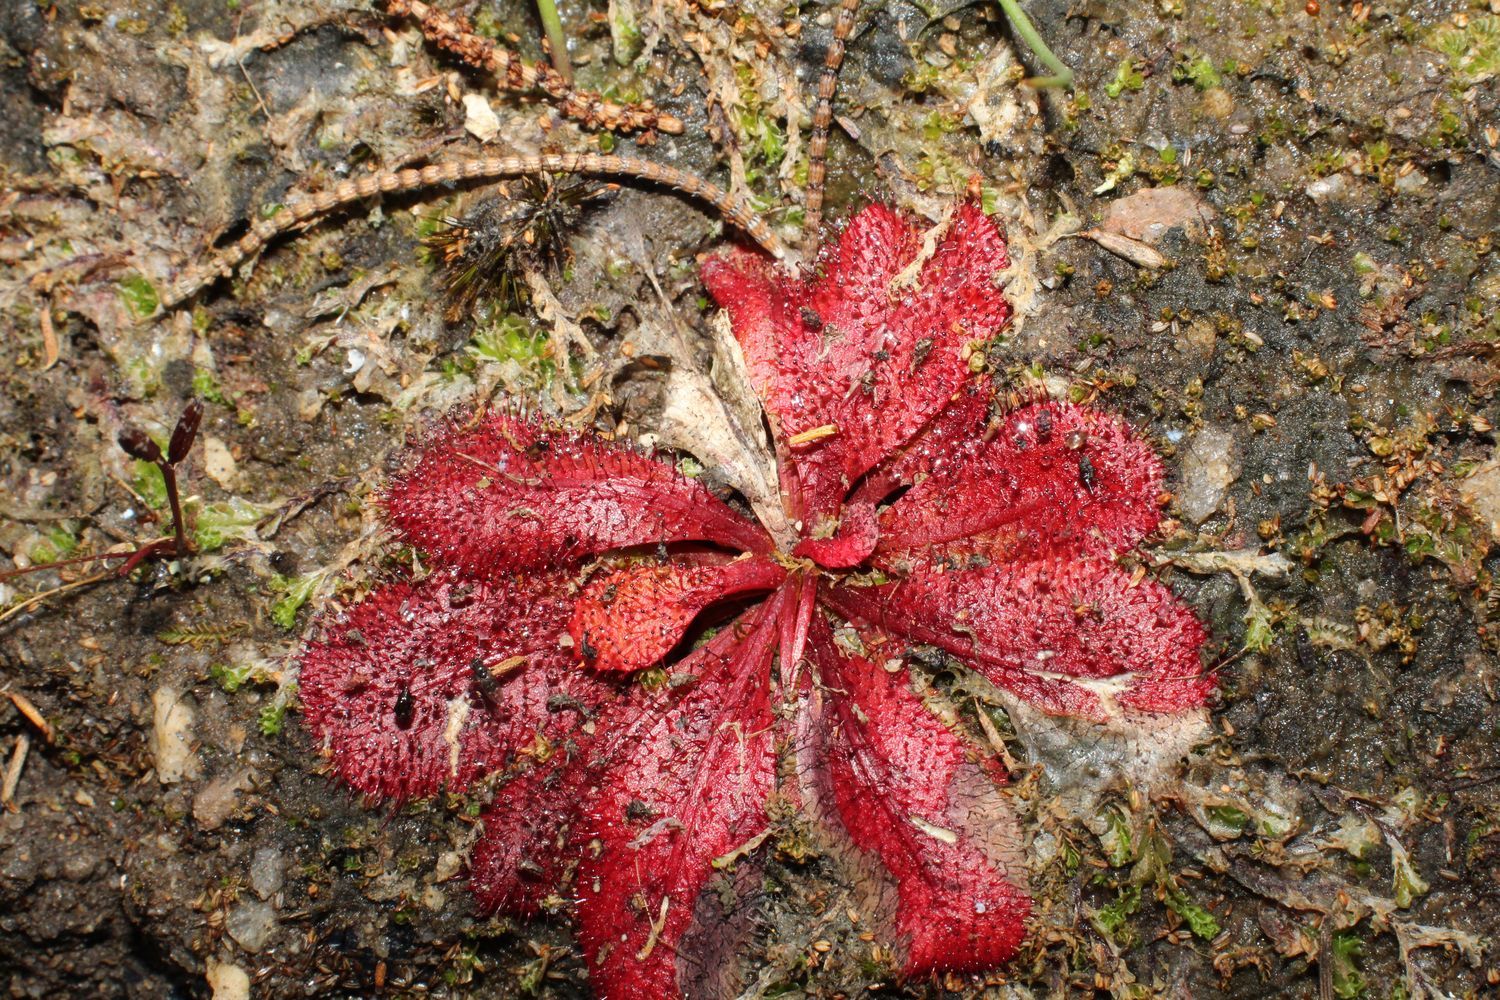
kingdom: Plantae
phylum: Tracheophyta
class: Magnoliopsida
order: Caryophyllales
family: Droseraceae
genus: Drosera
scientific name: Drosera bulbosa
